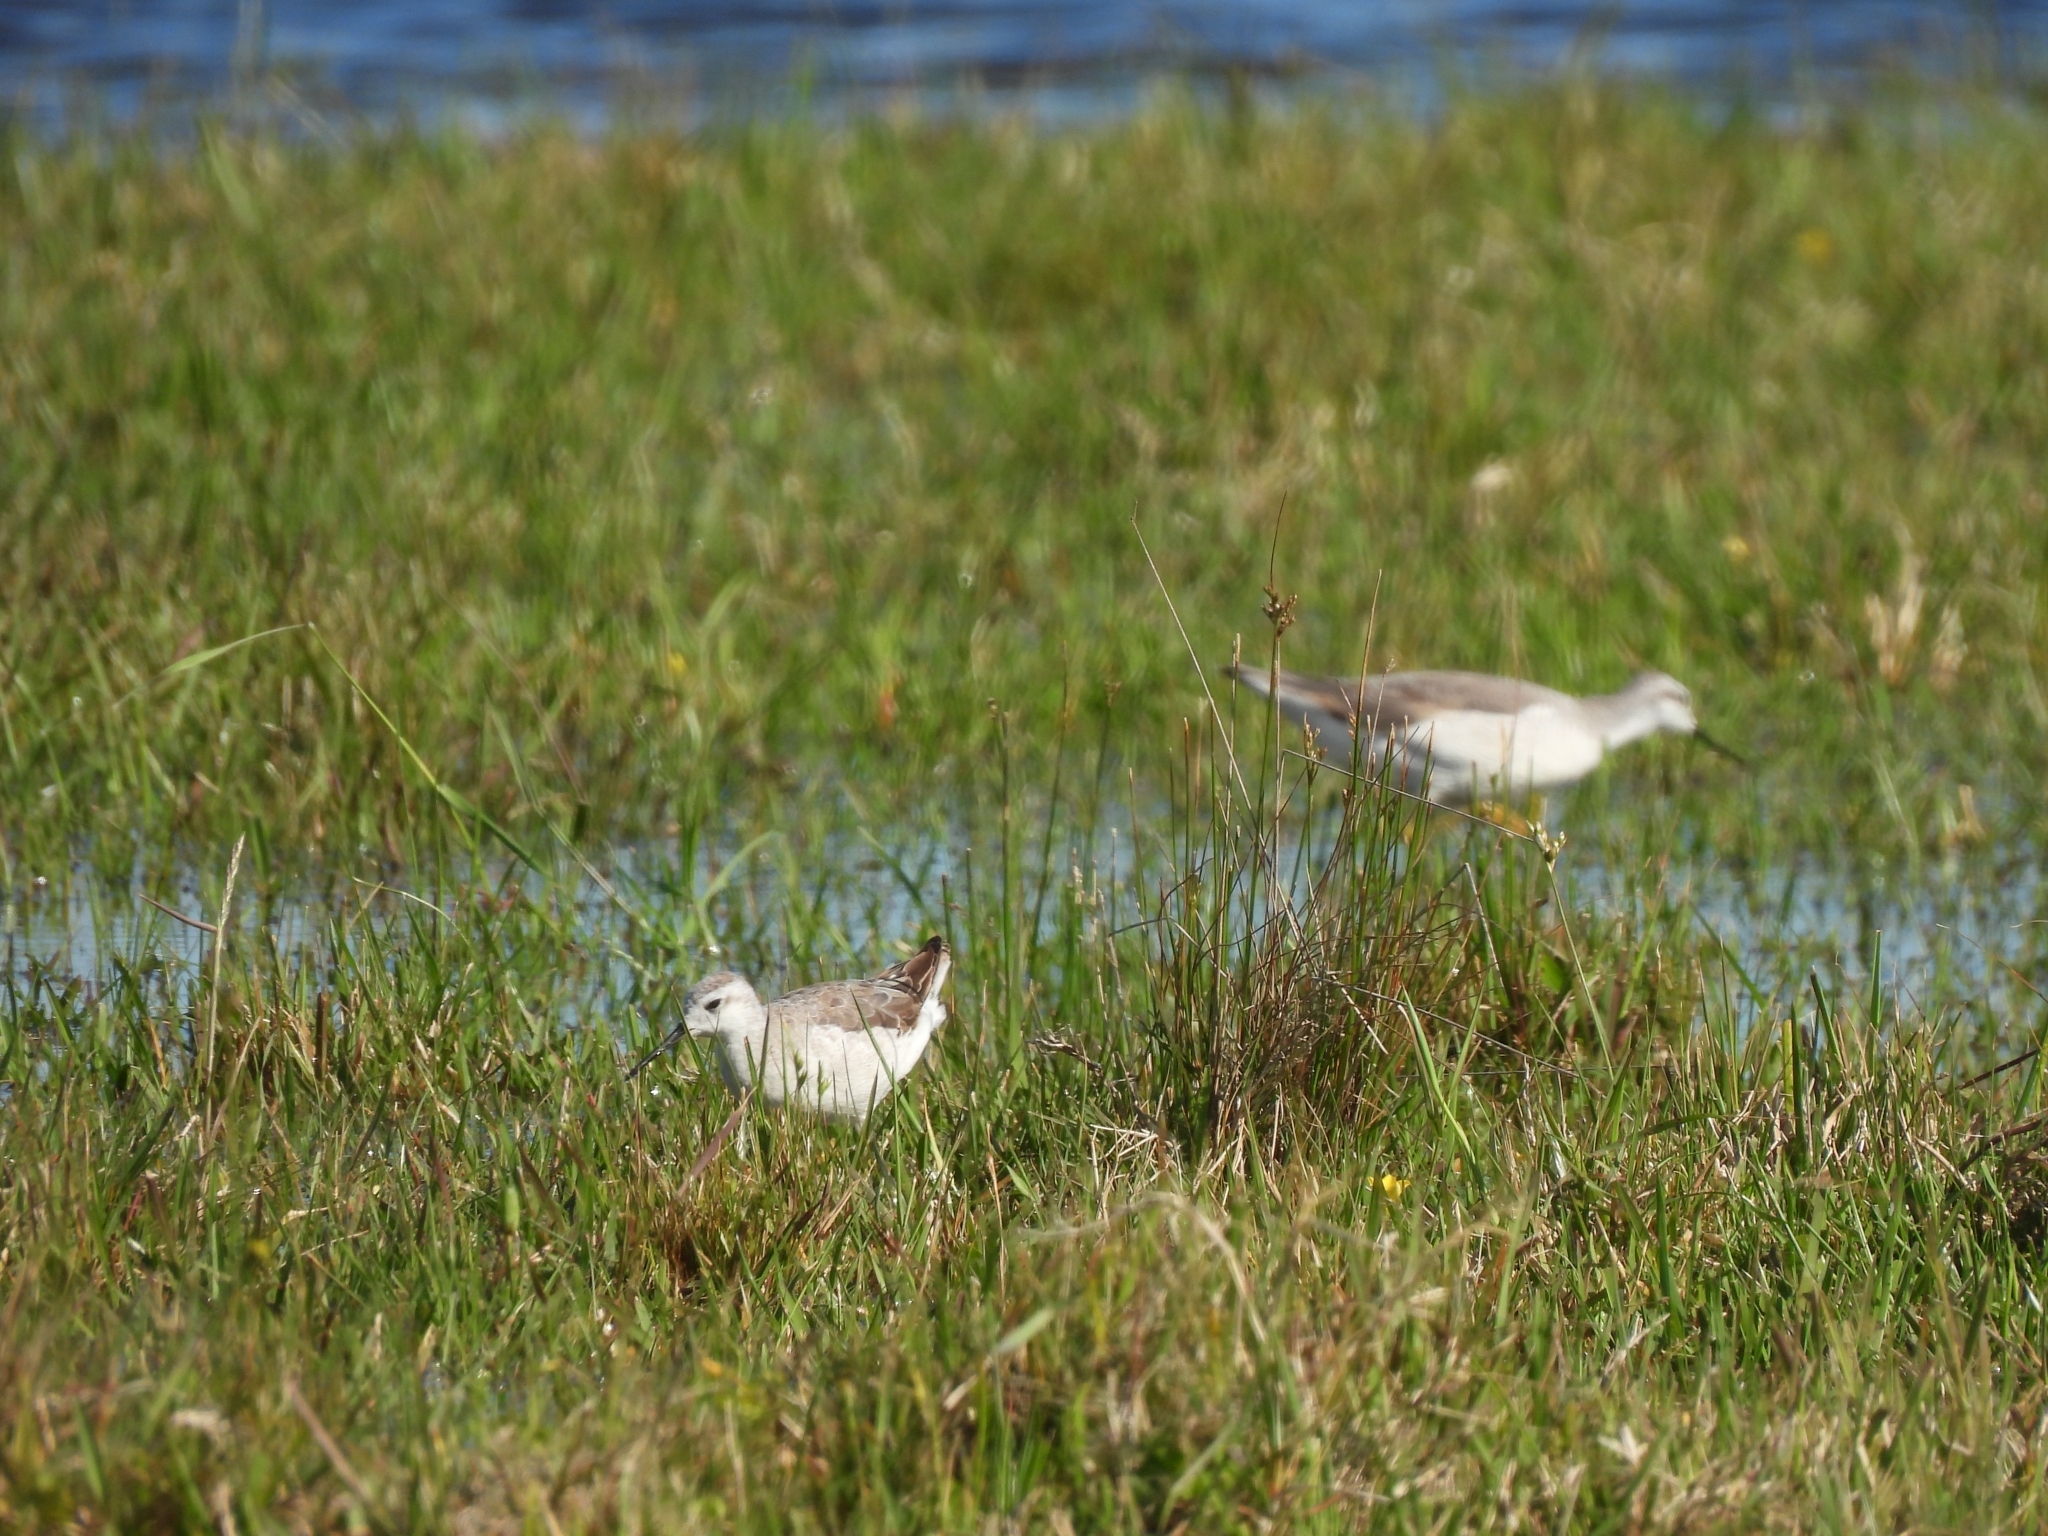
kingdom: Animalia
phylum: Chordata
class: Aves
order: Charadriiformes
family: Scolopacidae
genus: Phalaropus
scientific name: Phalaropus tricolor
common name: Wilson's phalarope
